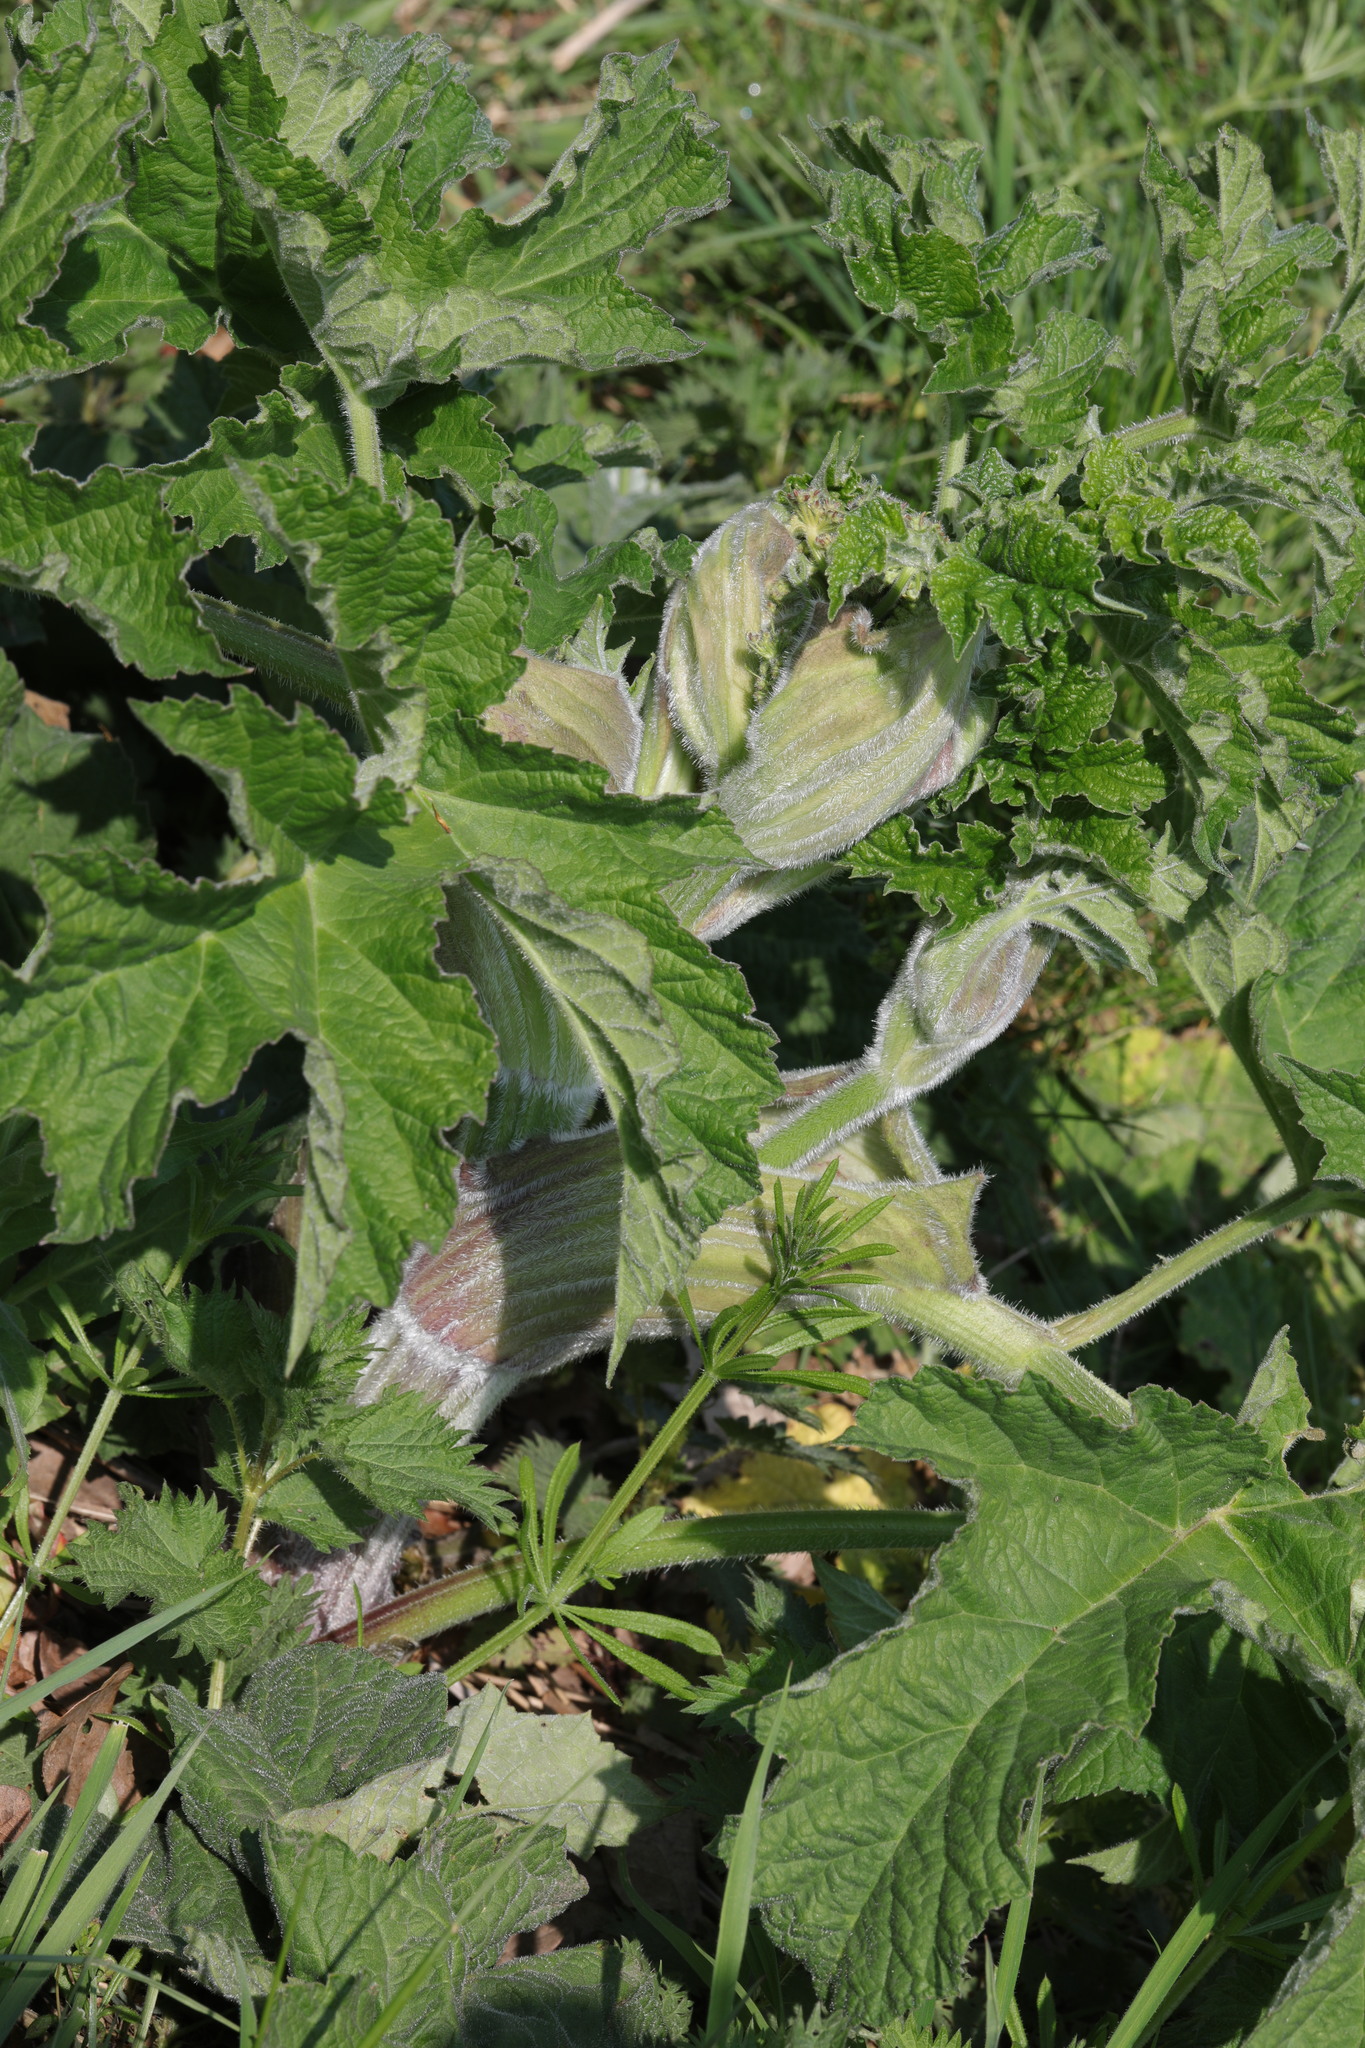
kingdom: Plantae
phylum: Tracheophyta
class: Magnoliopsida
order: Apiales
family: Apiaceae
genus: Heracleum
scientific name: Heracleum sphondylium
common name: Hogweed
